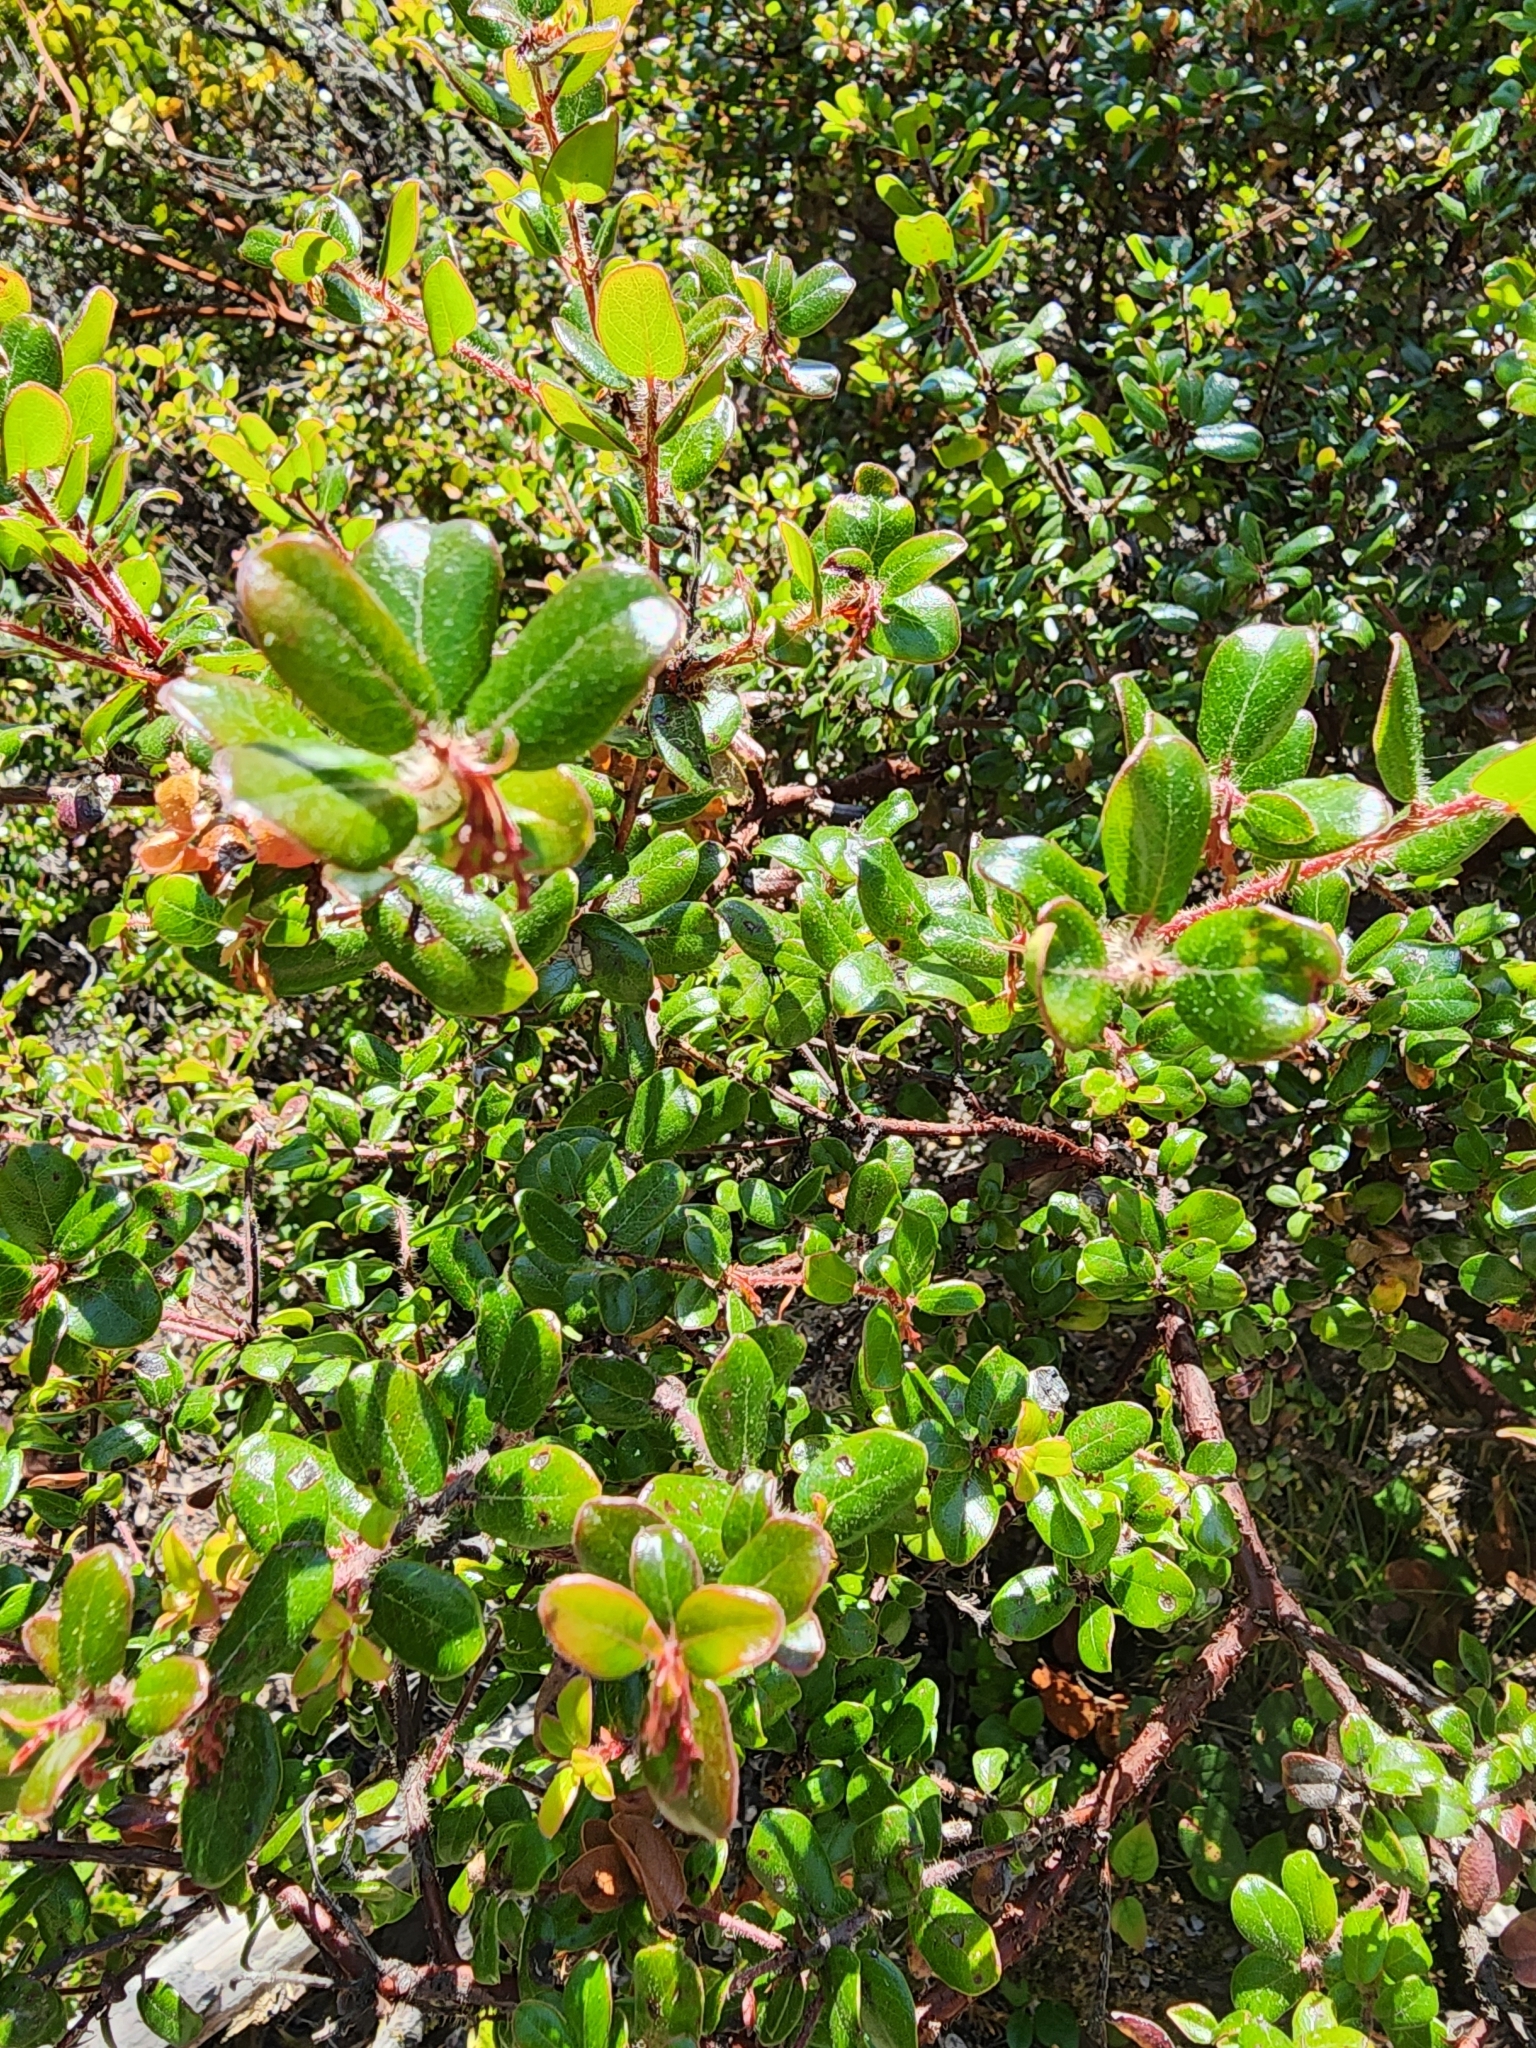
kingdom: Plantae
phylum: Tracheophyta
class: Magnoliopsida
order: Ericales
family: Ericaceae
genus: Arctostaphylos
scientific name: Arctostaphylos nummularia
